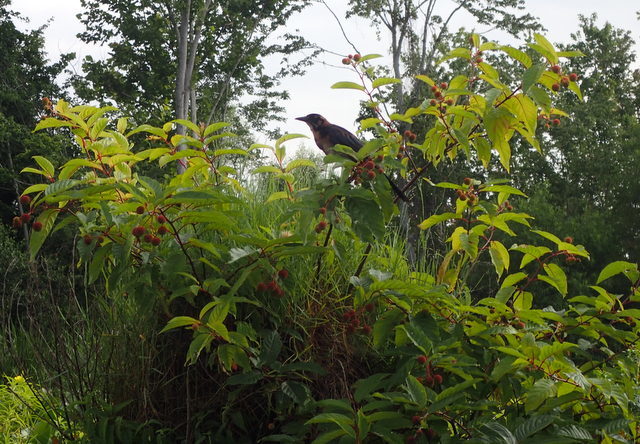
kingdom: Plantae
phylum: Tracheophyta
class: Magnoliopsida
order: Gentianales
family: Rubiaceae
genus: Cephalanthus
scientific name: Cephalanthus occidentalis
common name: Button-willow
